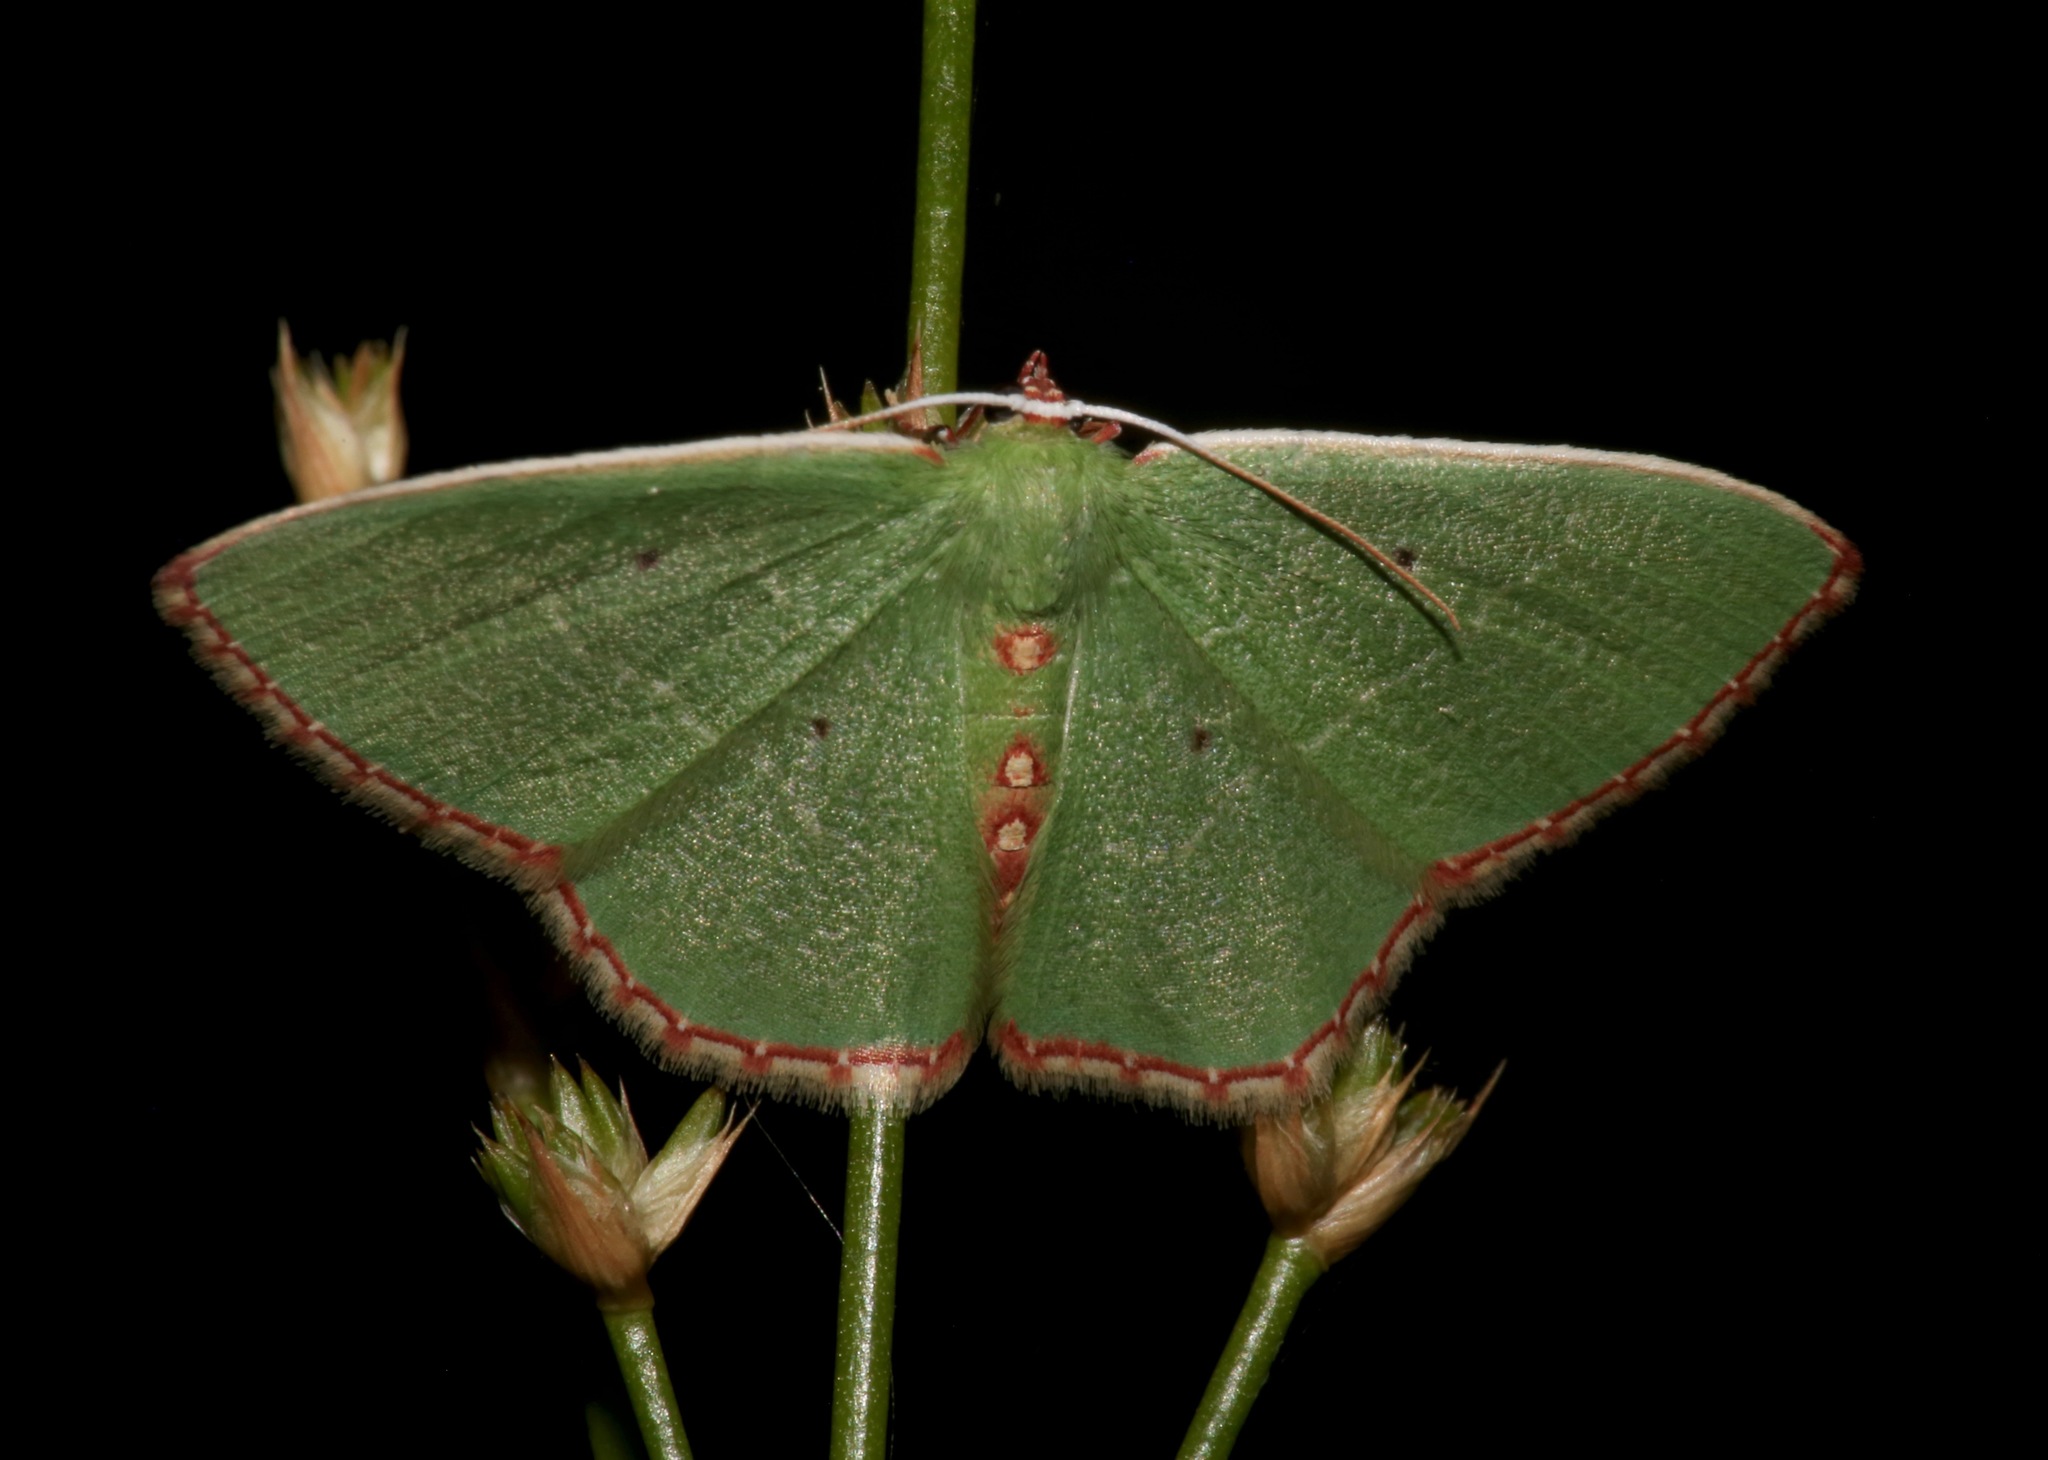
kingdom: Animalia
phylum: Arthropoda
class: Insecta
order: Lepidoptera
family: Geometridae
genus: Nemoria
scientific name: Nemoria lixaria
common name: Red-bordered emerald
